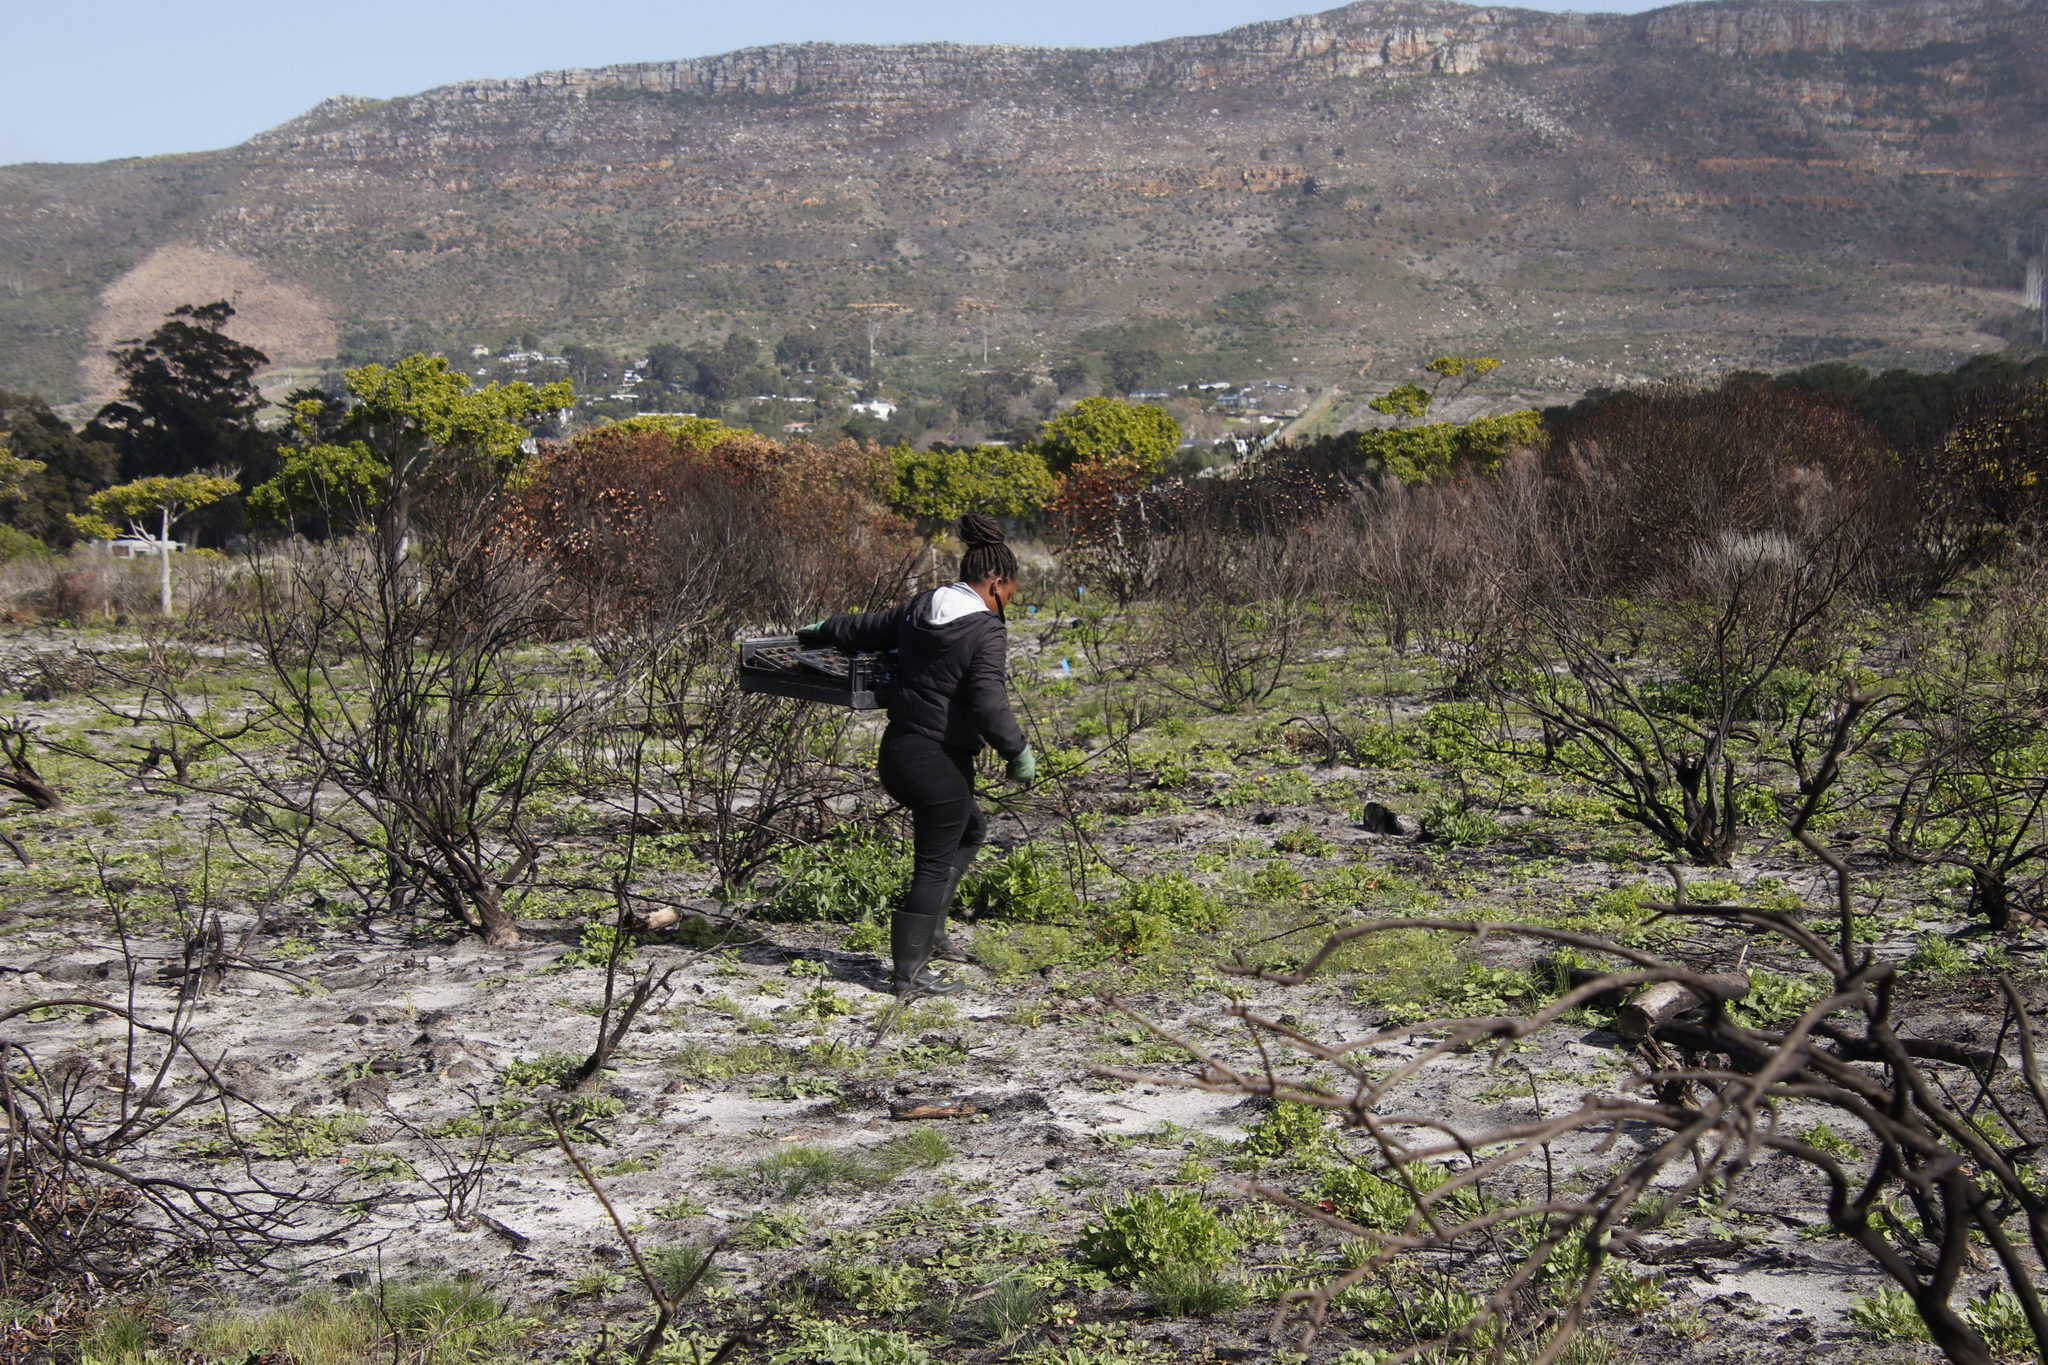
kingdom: Plantae
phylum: Tracheophyta
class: Magnoliopsida
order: Lamiales
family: Scrophulariaceae
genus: Oftia
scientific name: Oftia africana
